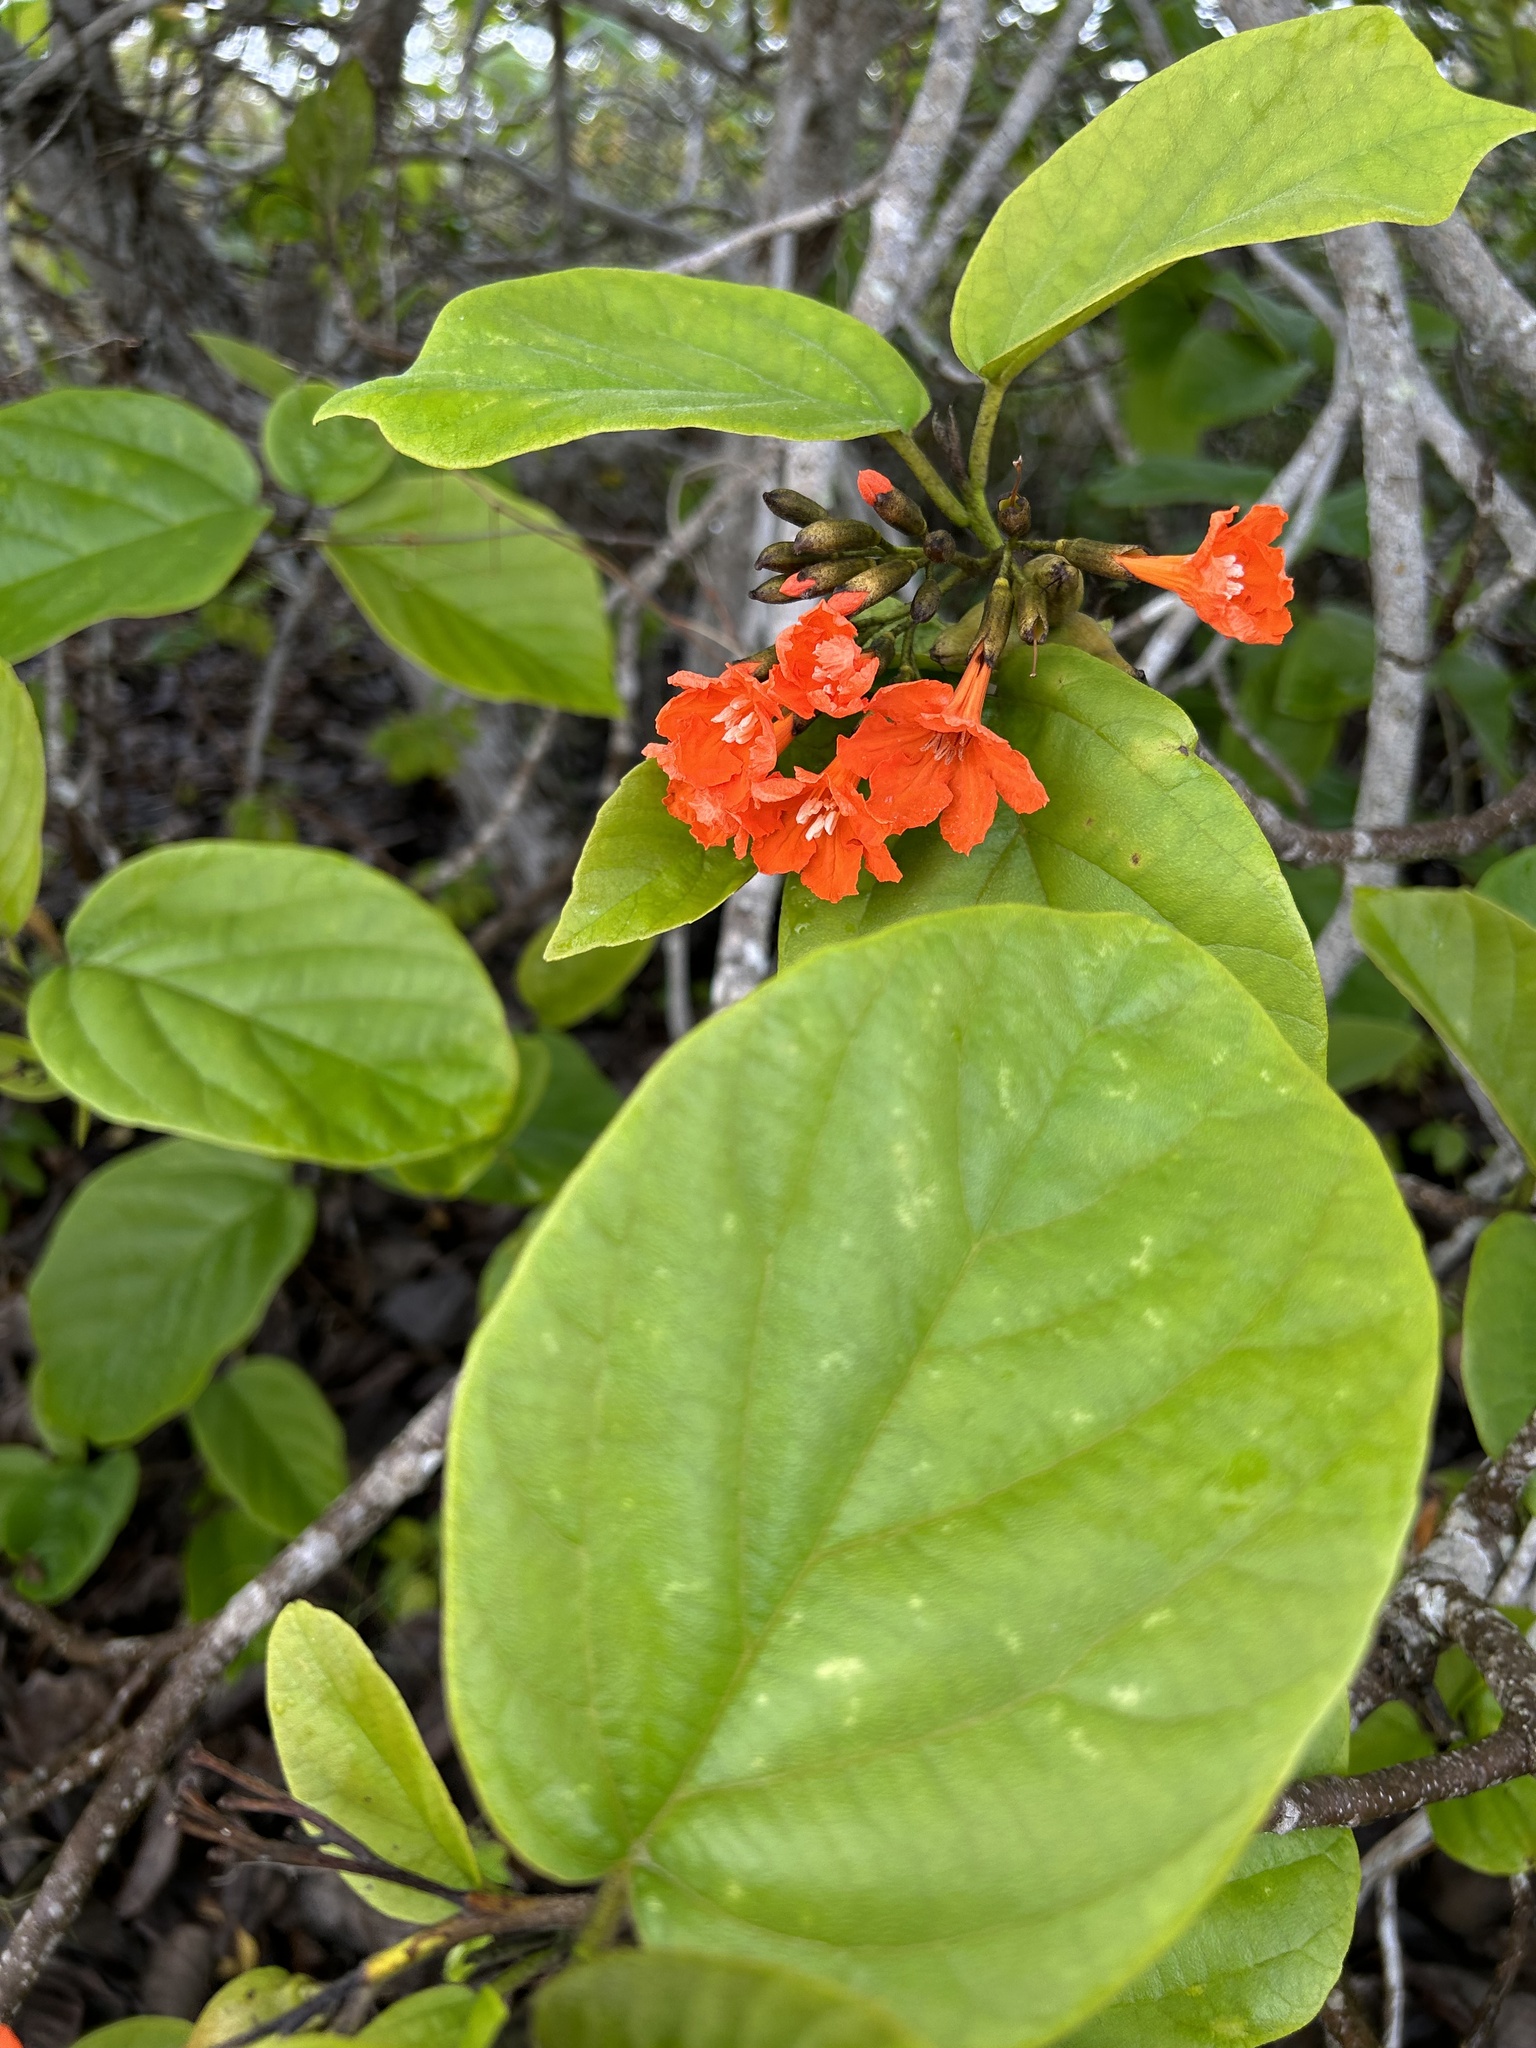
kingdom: Plantae
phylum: Tracheophyta
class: Magnoliopsida
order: Boraginales
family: Cordiaceae
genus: Cordia
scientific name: Cordia sebestena
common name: Largeleaf geigertree
